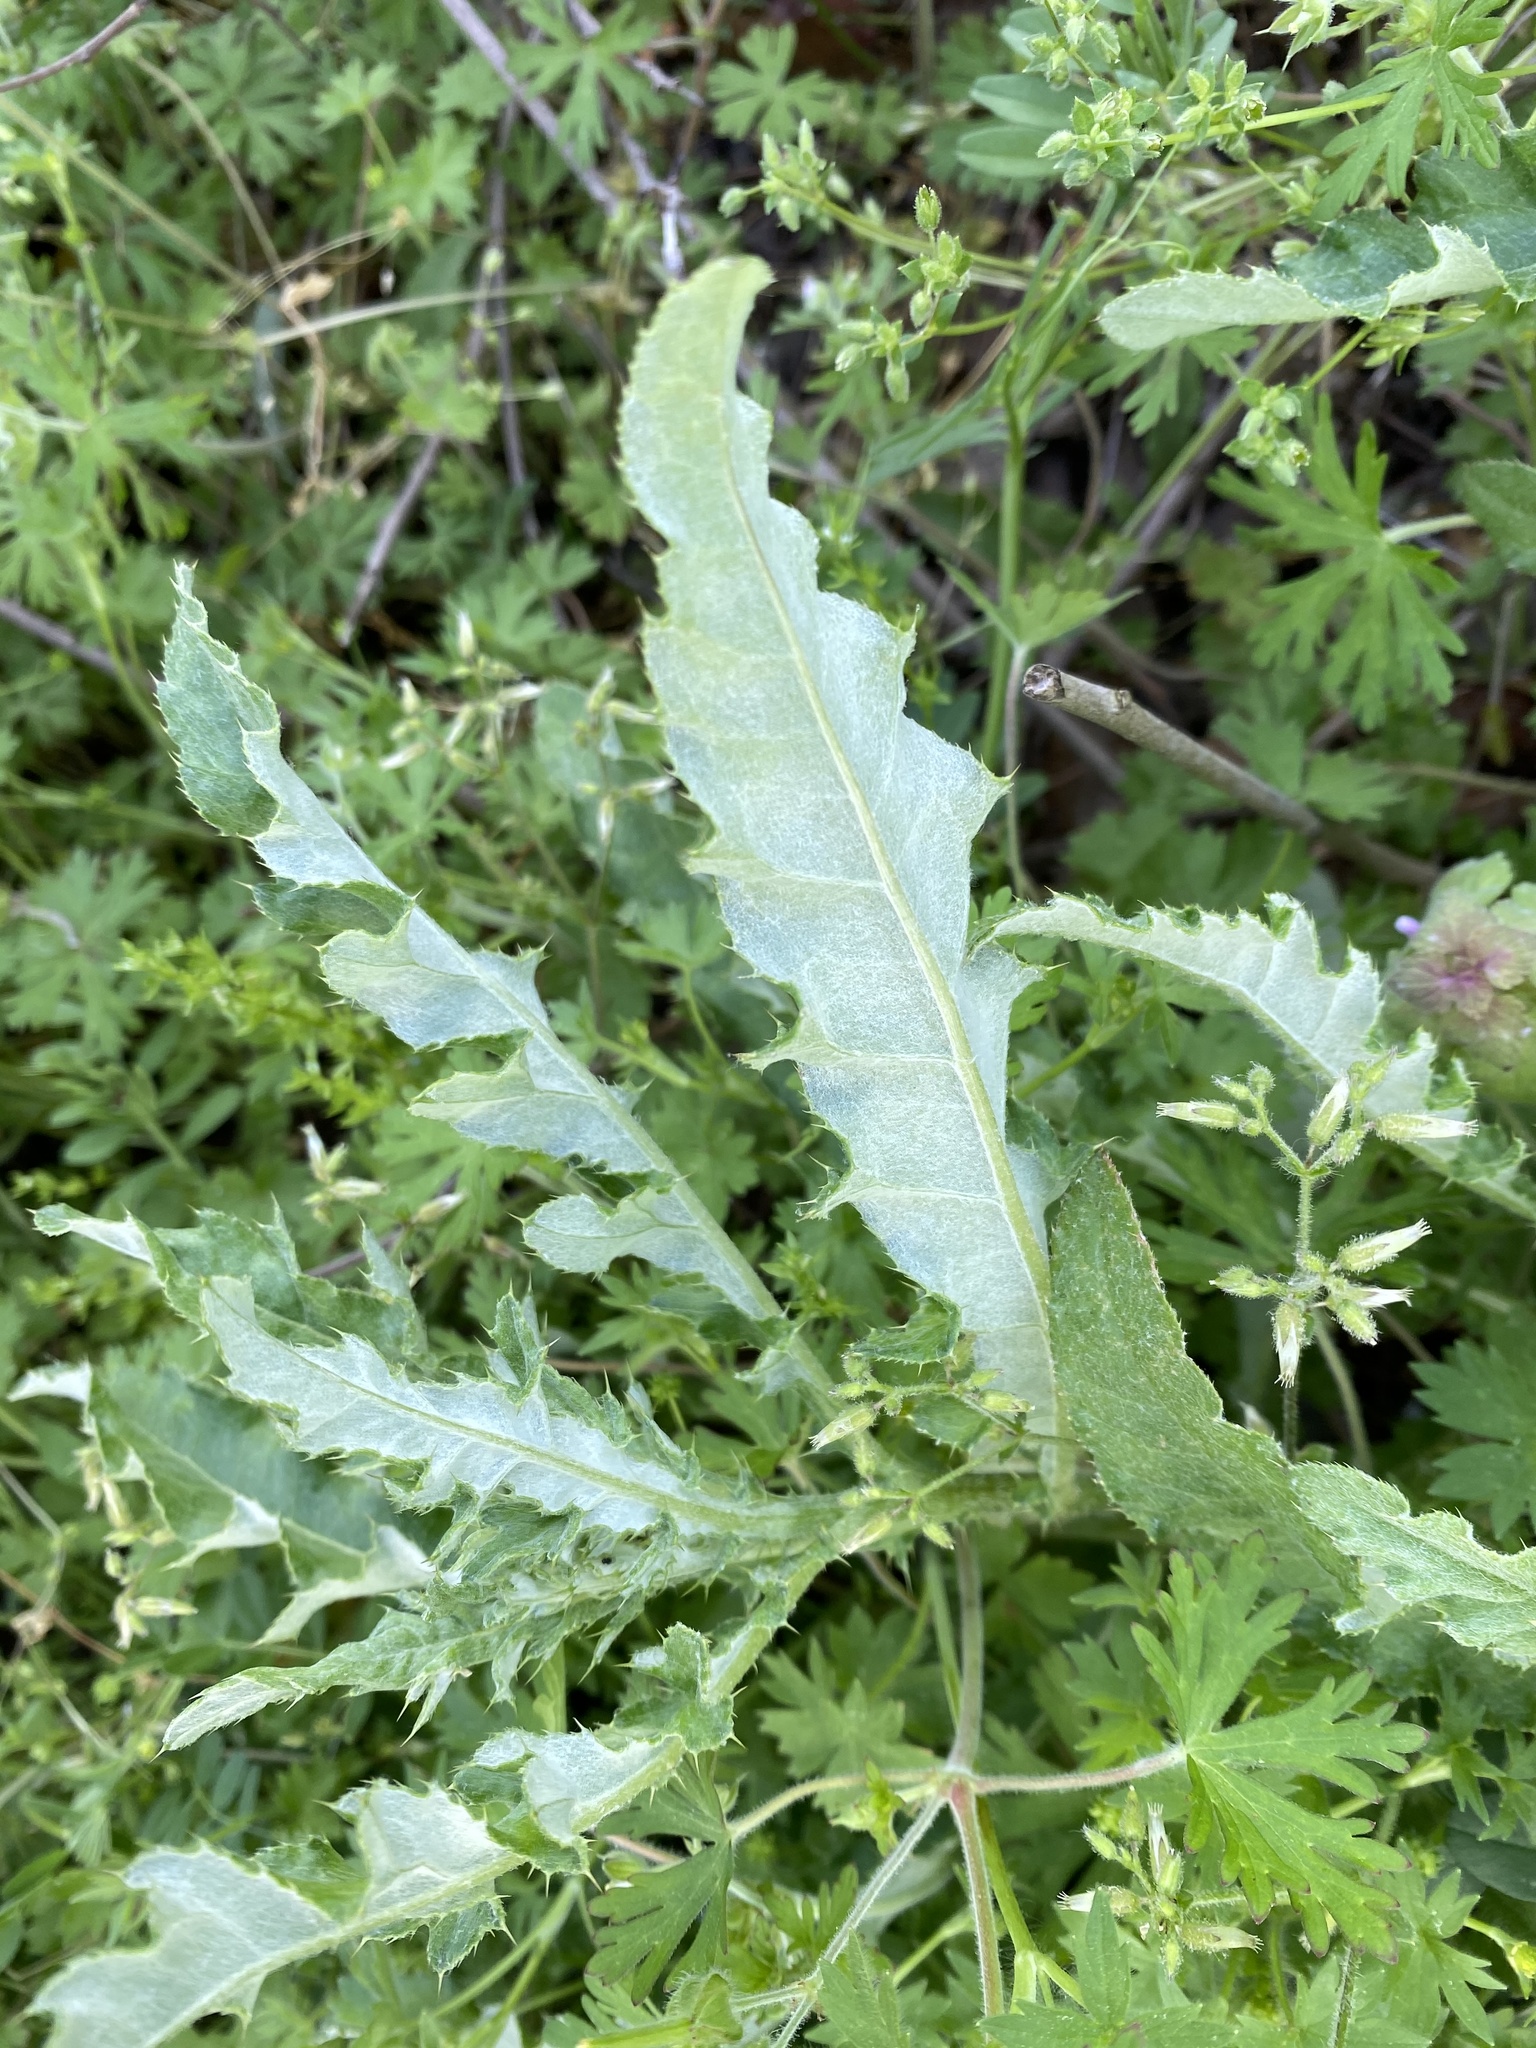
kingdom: Plantae
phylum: Tracheophyta
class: Magnoliopsida
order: Asterales
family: Asteraceae
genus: Cirsium
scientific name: Cirsium arvense
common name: Creeping thistle
